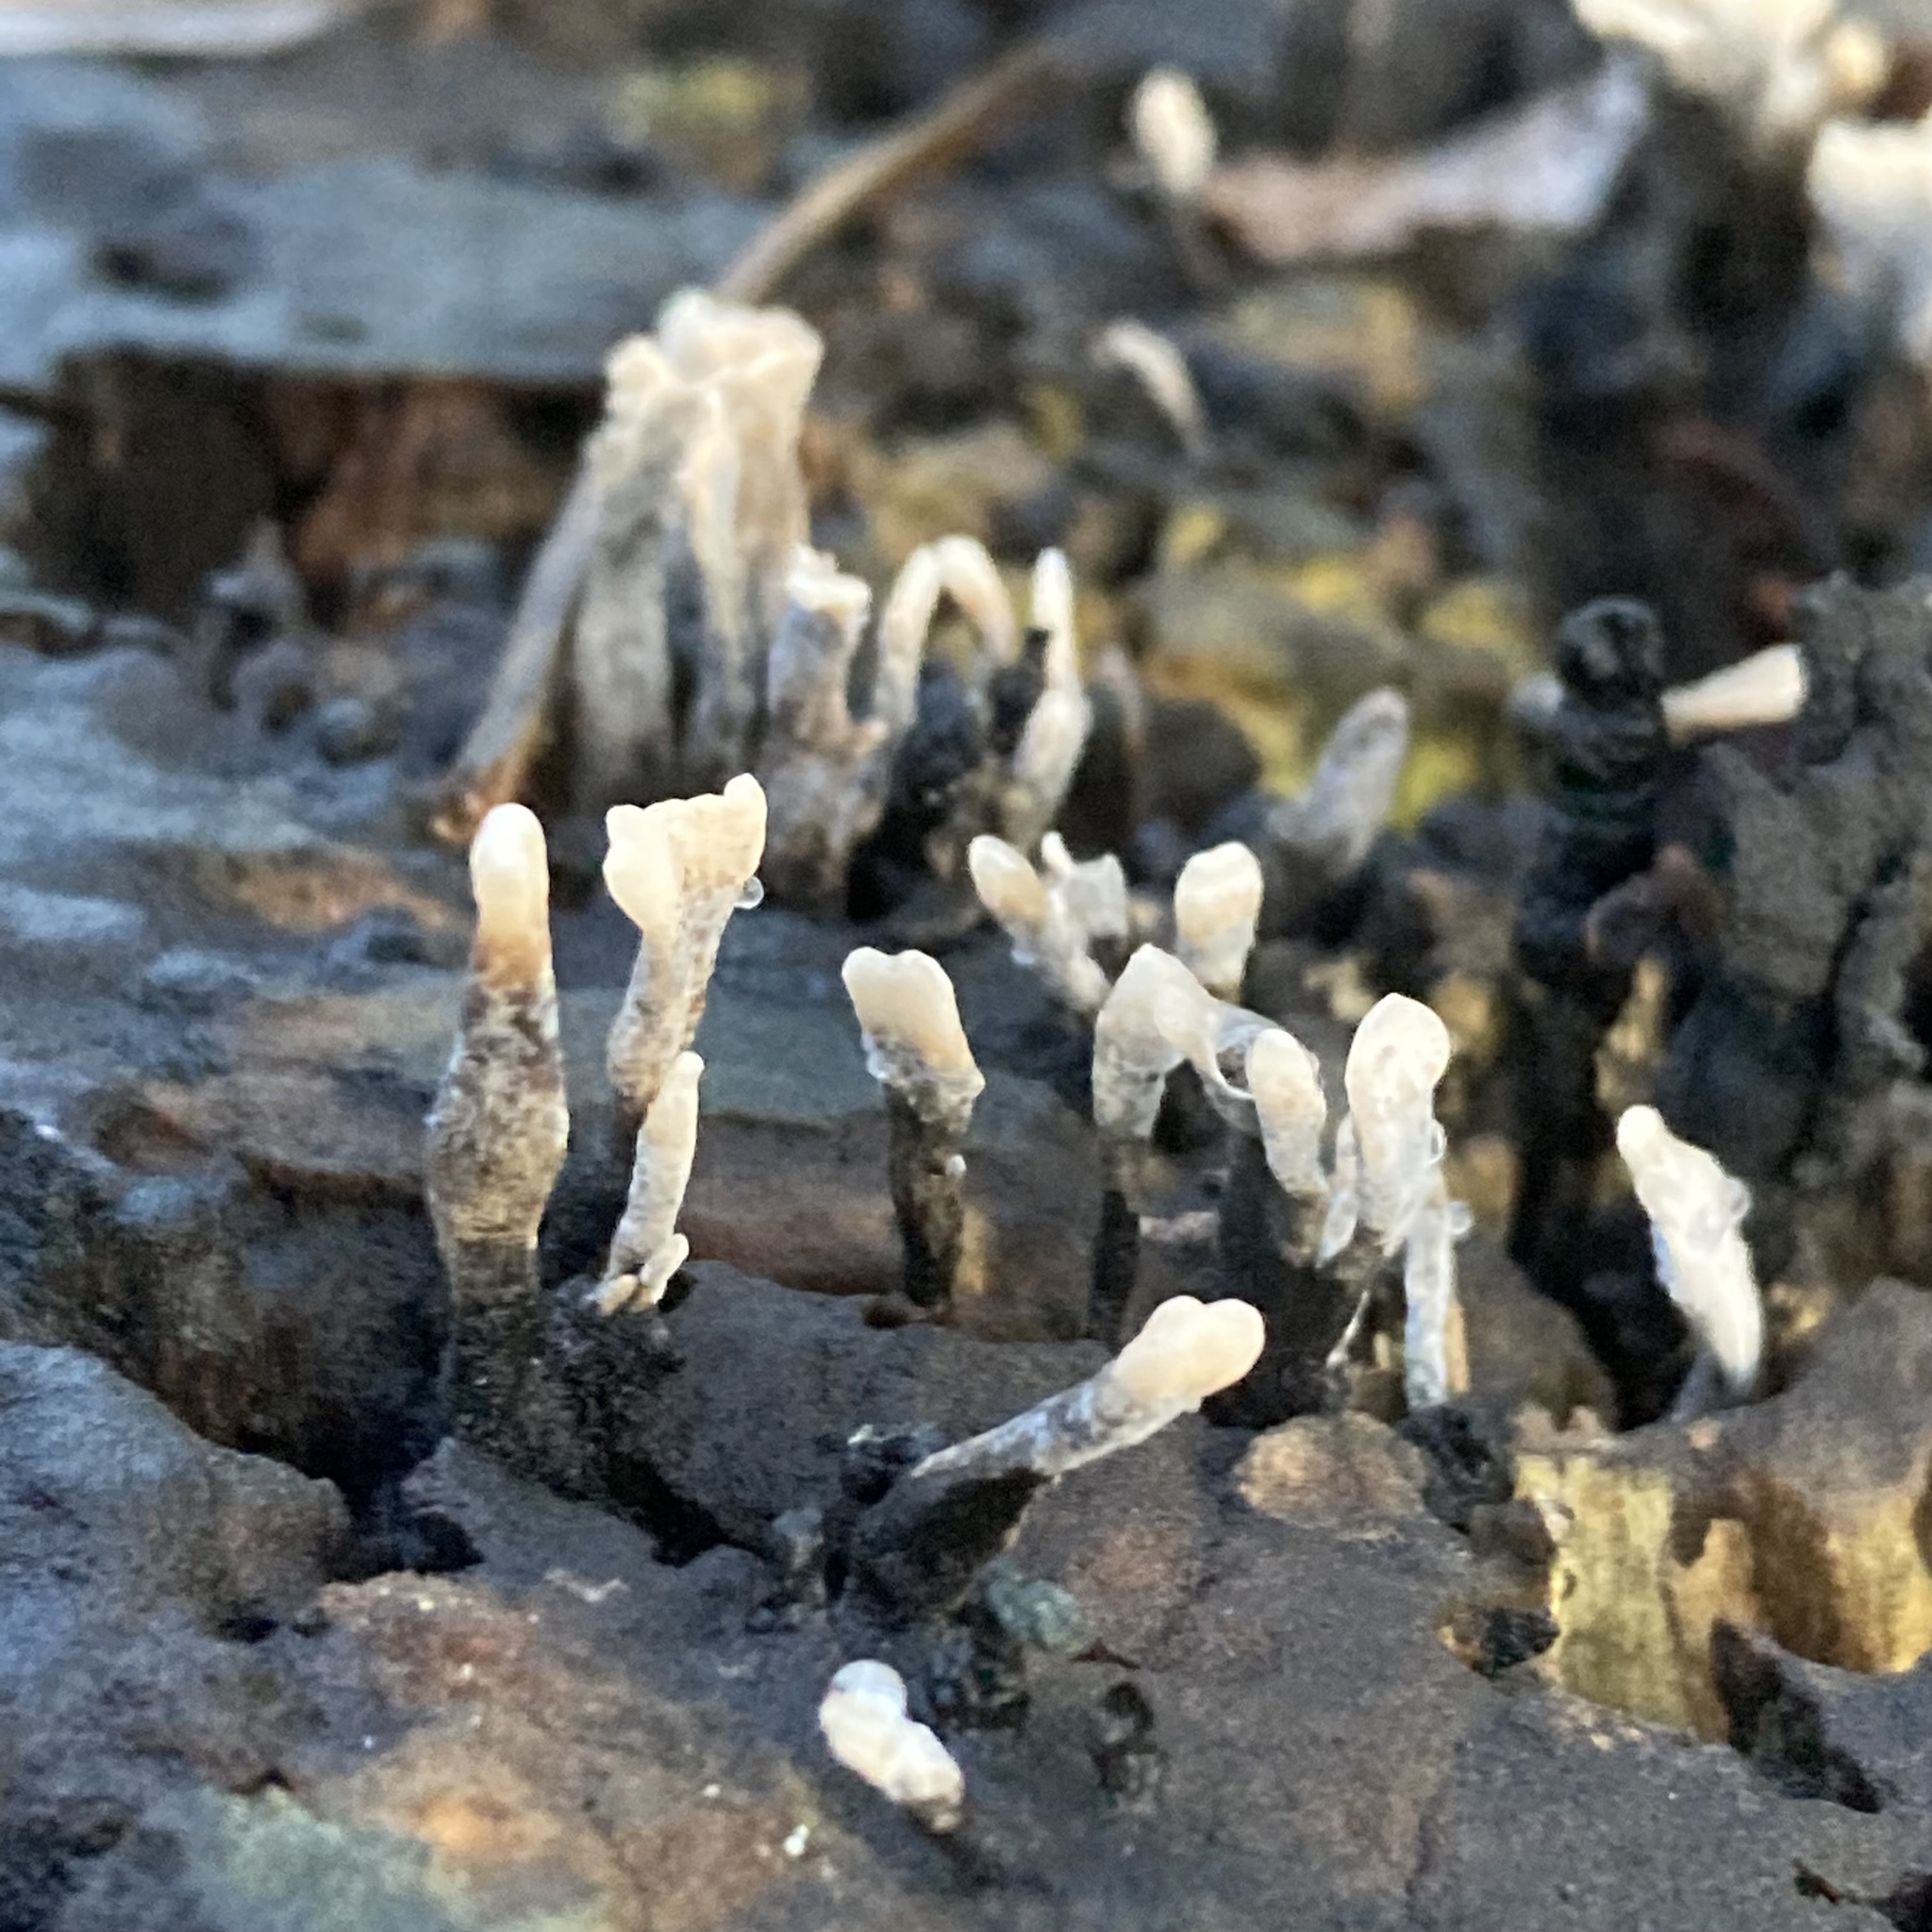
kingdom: Fungi
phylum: Ascomycota
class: Sordariomycetes
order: Xylariales
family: Xylariaceae
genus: Xylaria
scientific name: Xylaria hypoxylon
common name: Candle-snuff fungus
